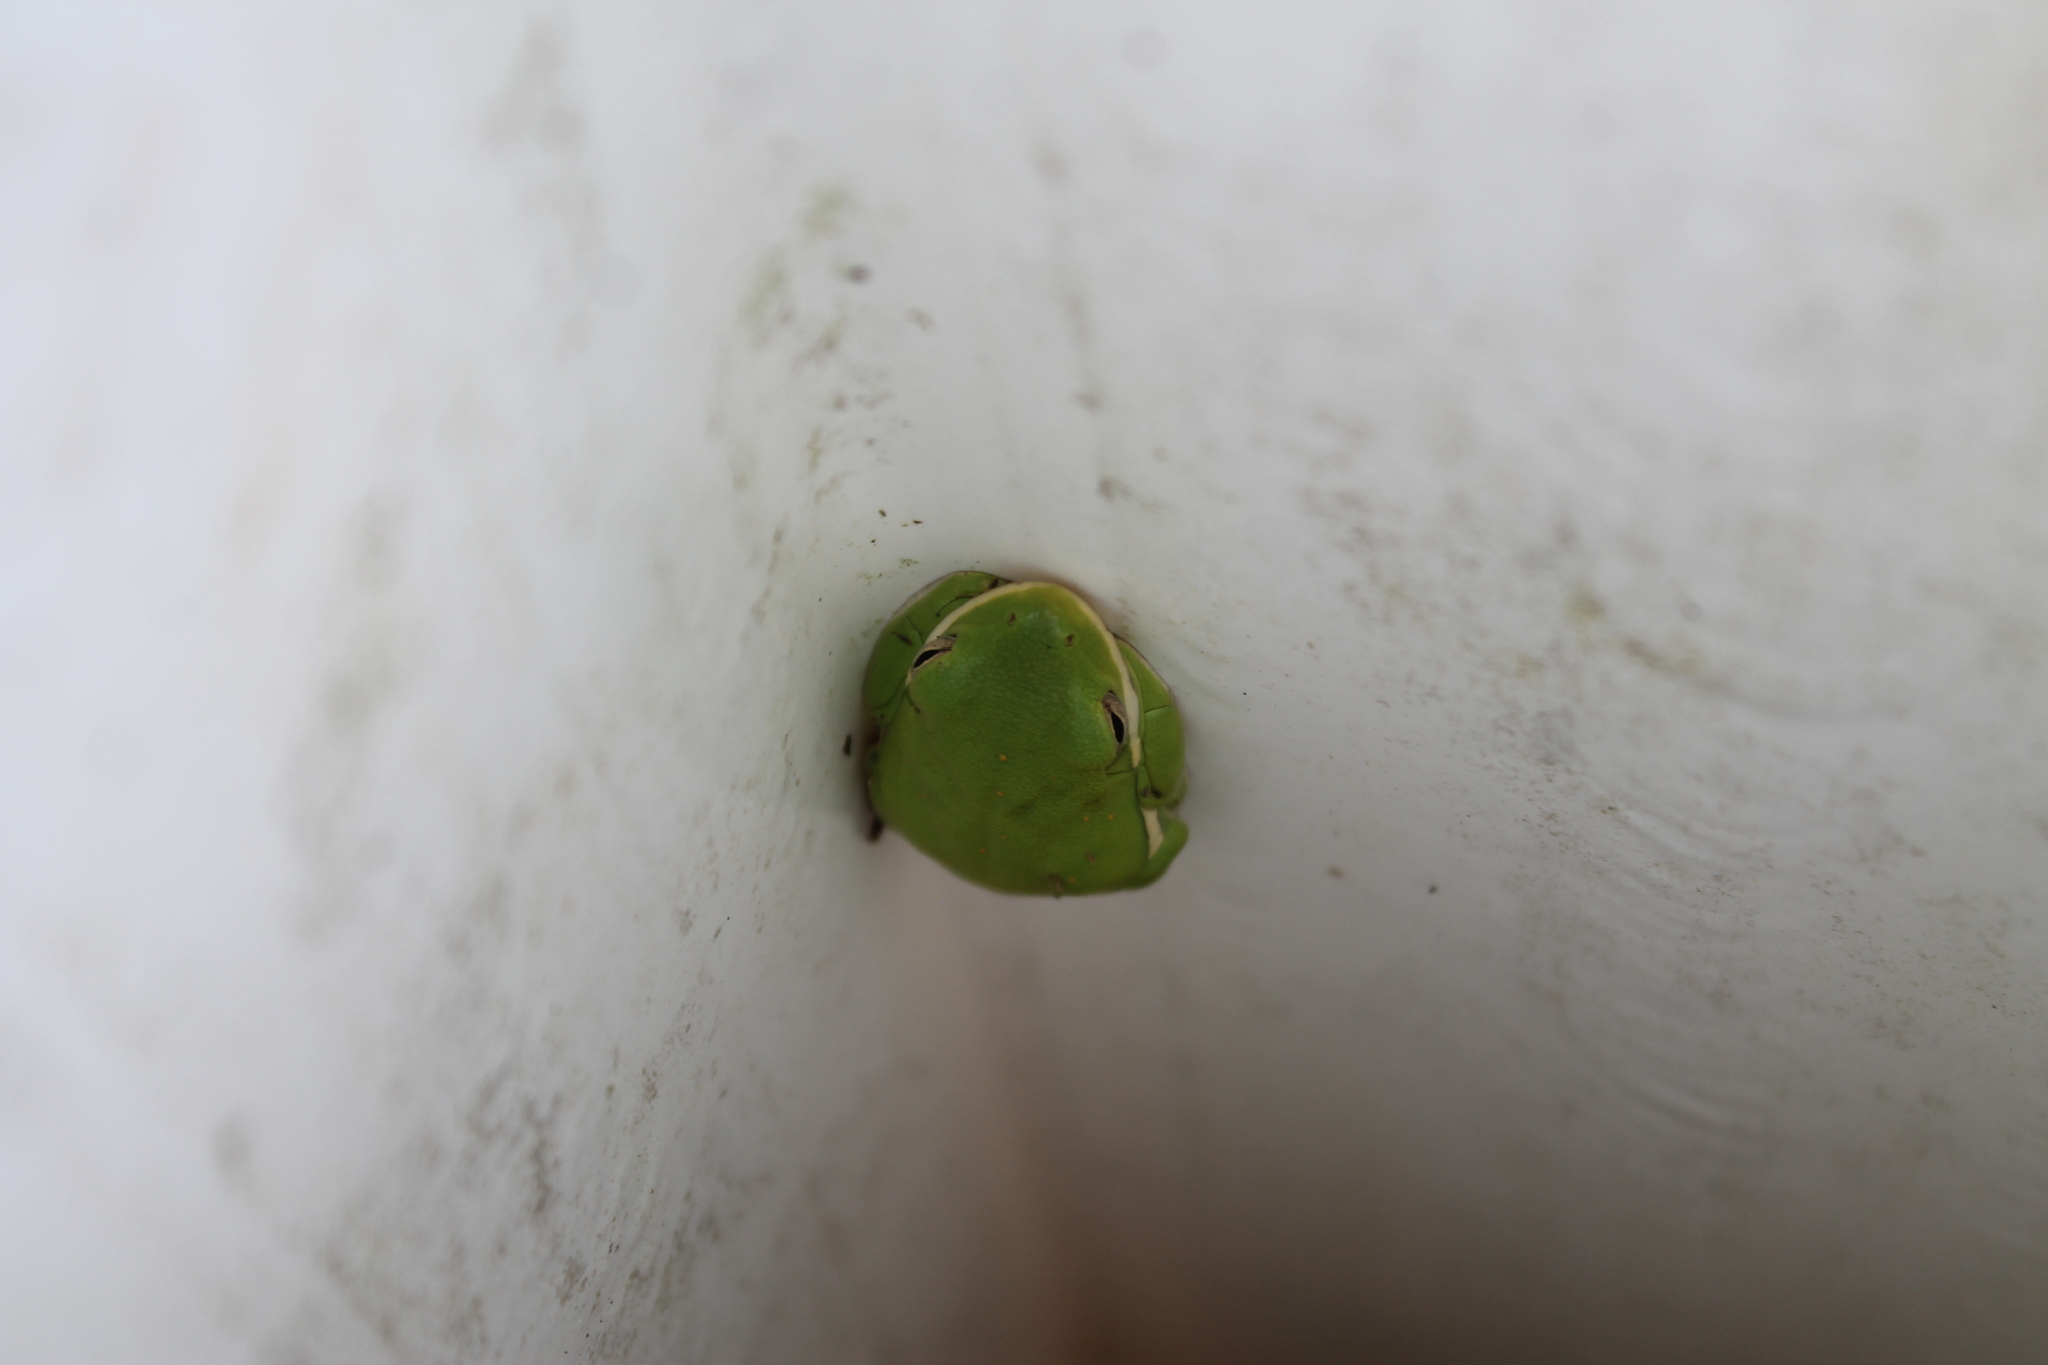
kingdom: Animalia
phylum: Chordata
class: Amphibia
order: Anura
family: Hylidae
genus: Dryophytes
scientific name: Dryophytes cinereus
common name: Green treefrog
